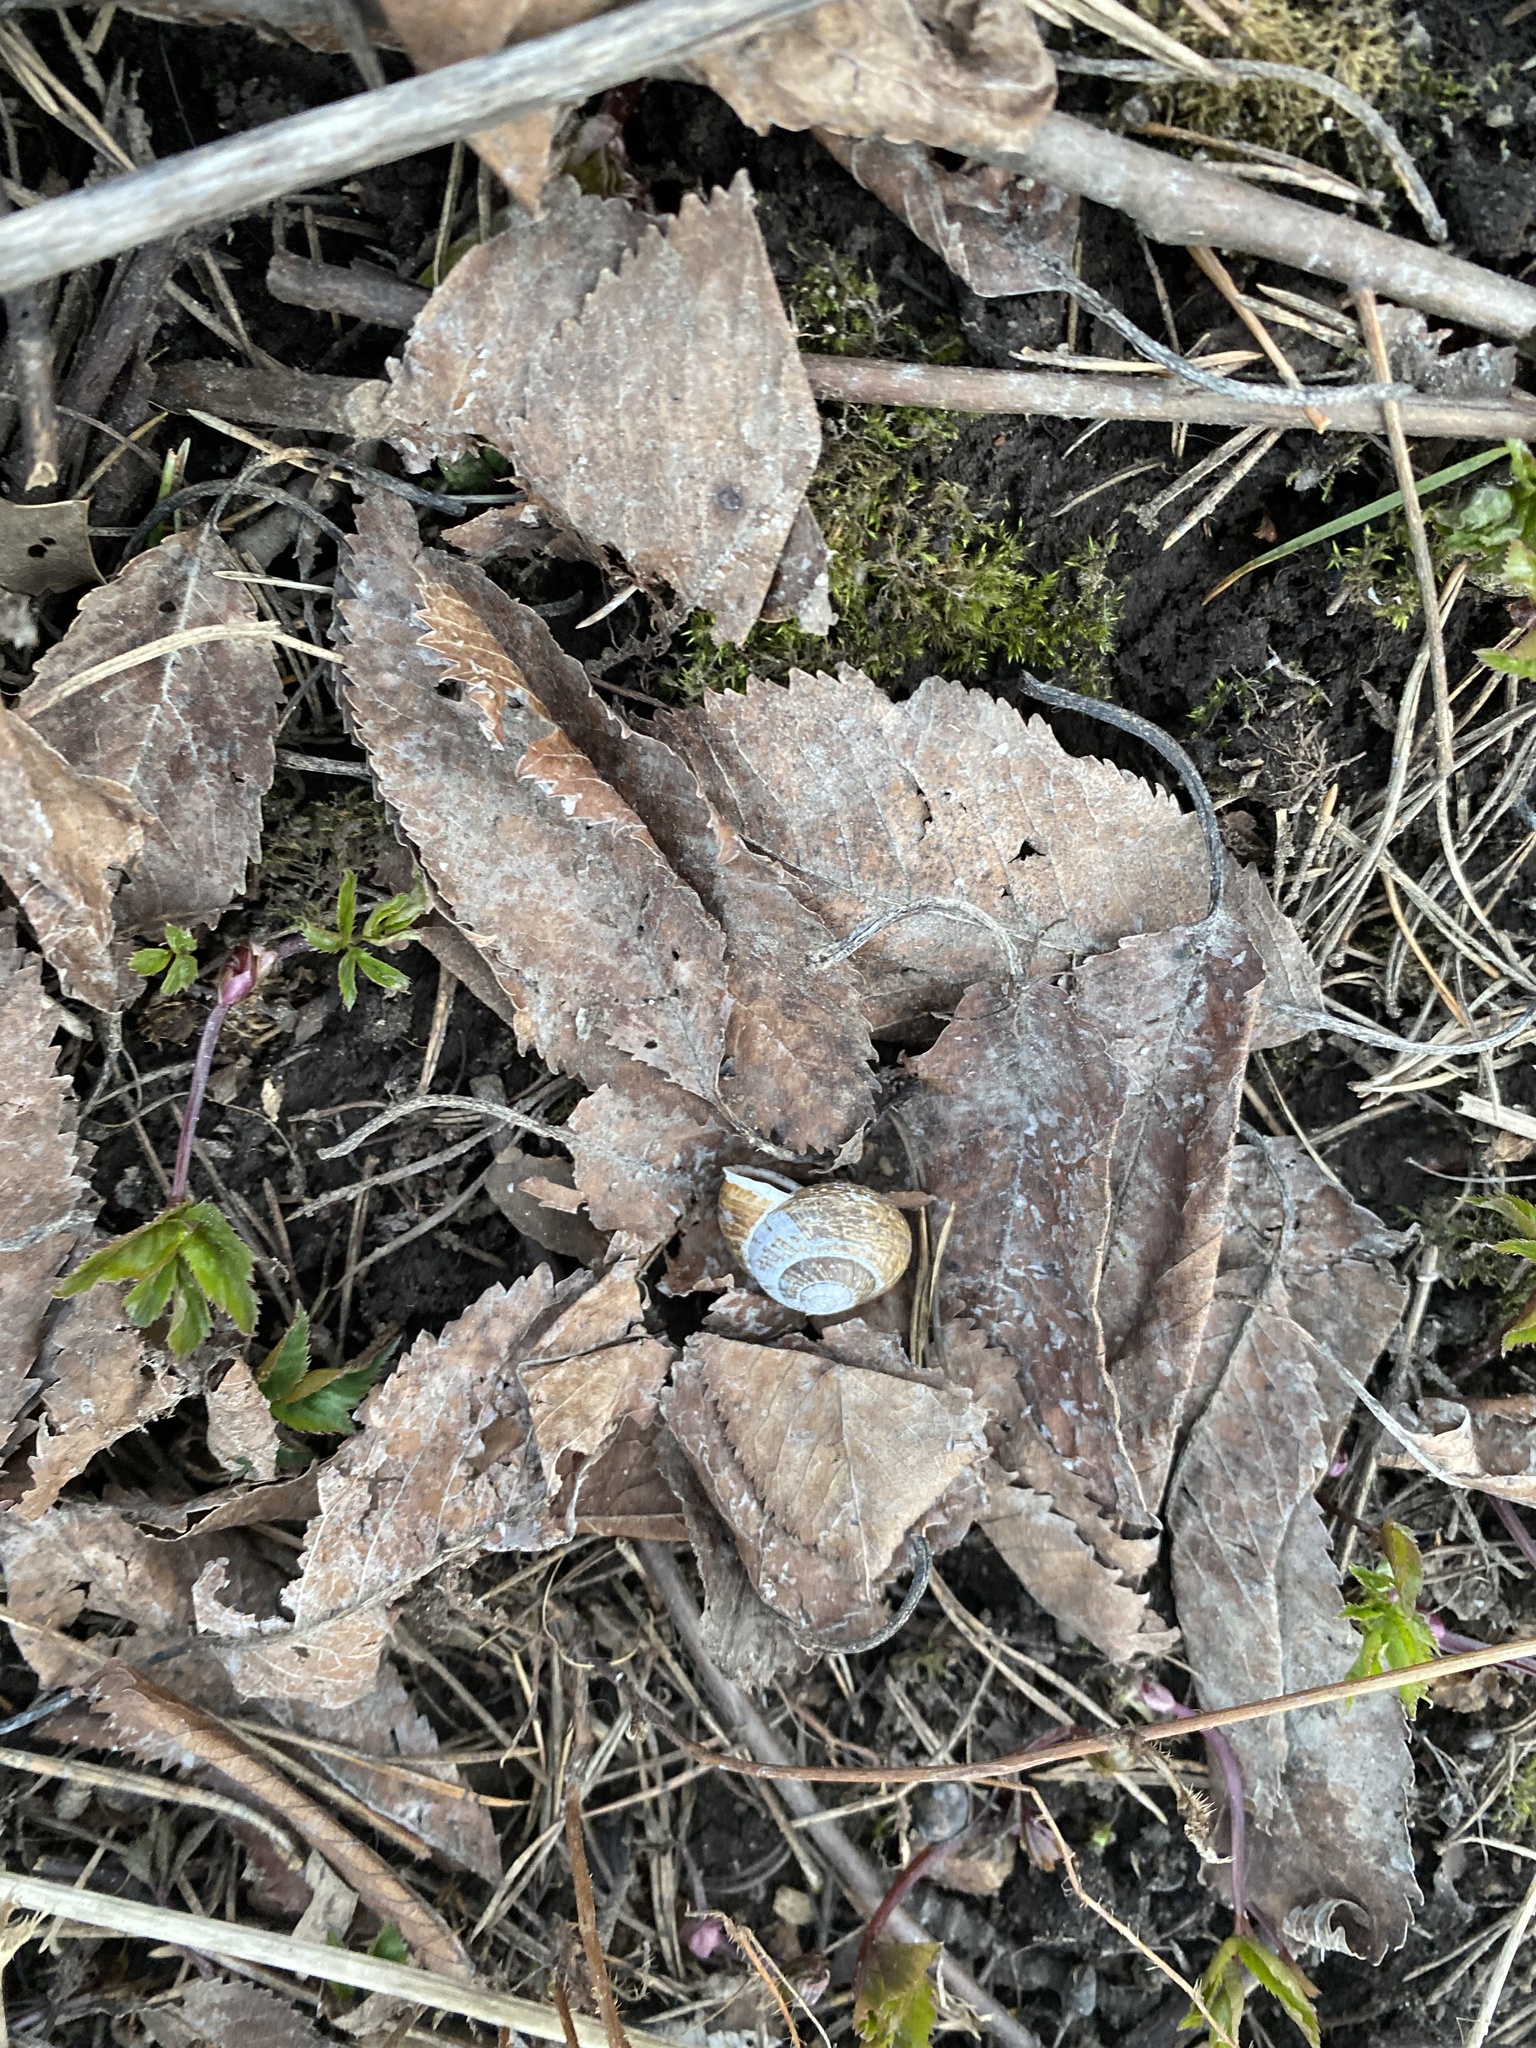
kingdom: Animalia
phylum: Mollusca
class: Gastropoda
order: Stylommatophora
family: Helicidae
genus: Arianta
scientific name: Arianta arbustorum
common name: Copse snail
